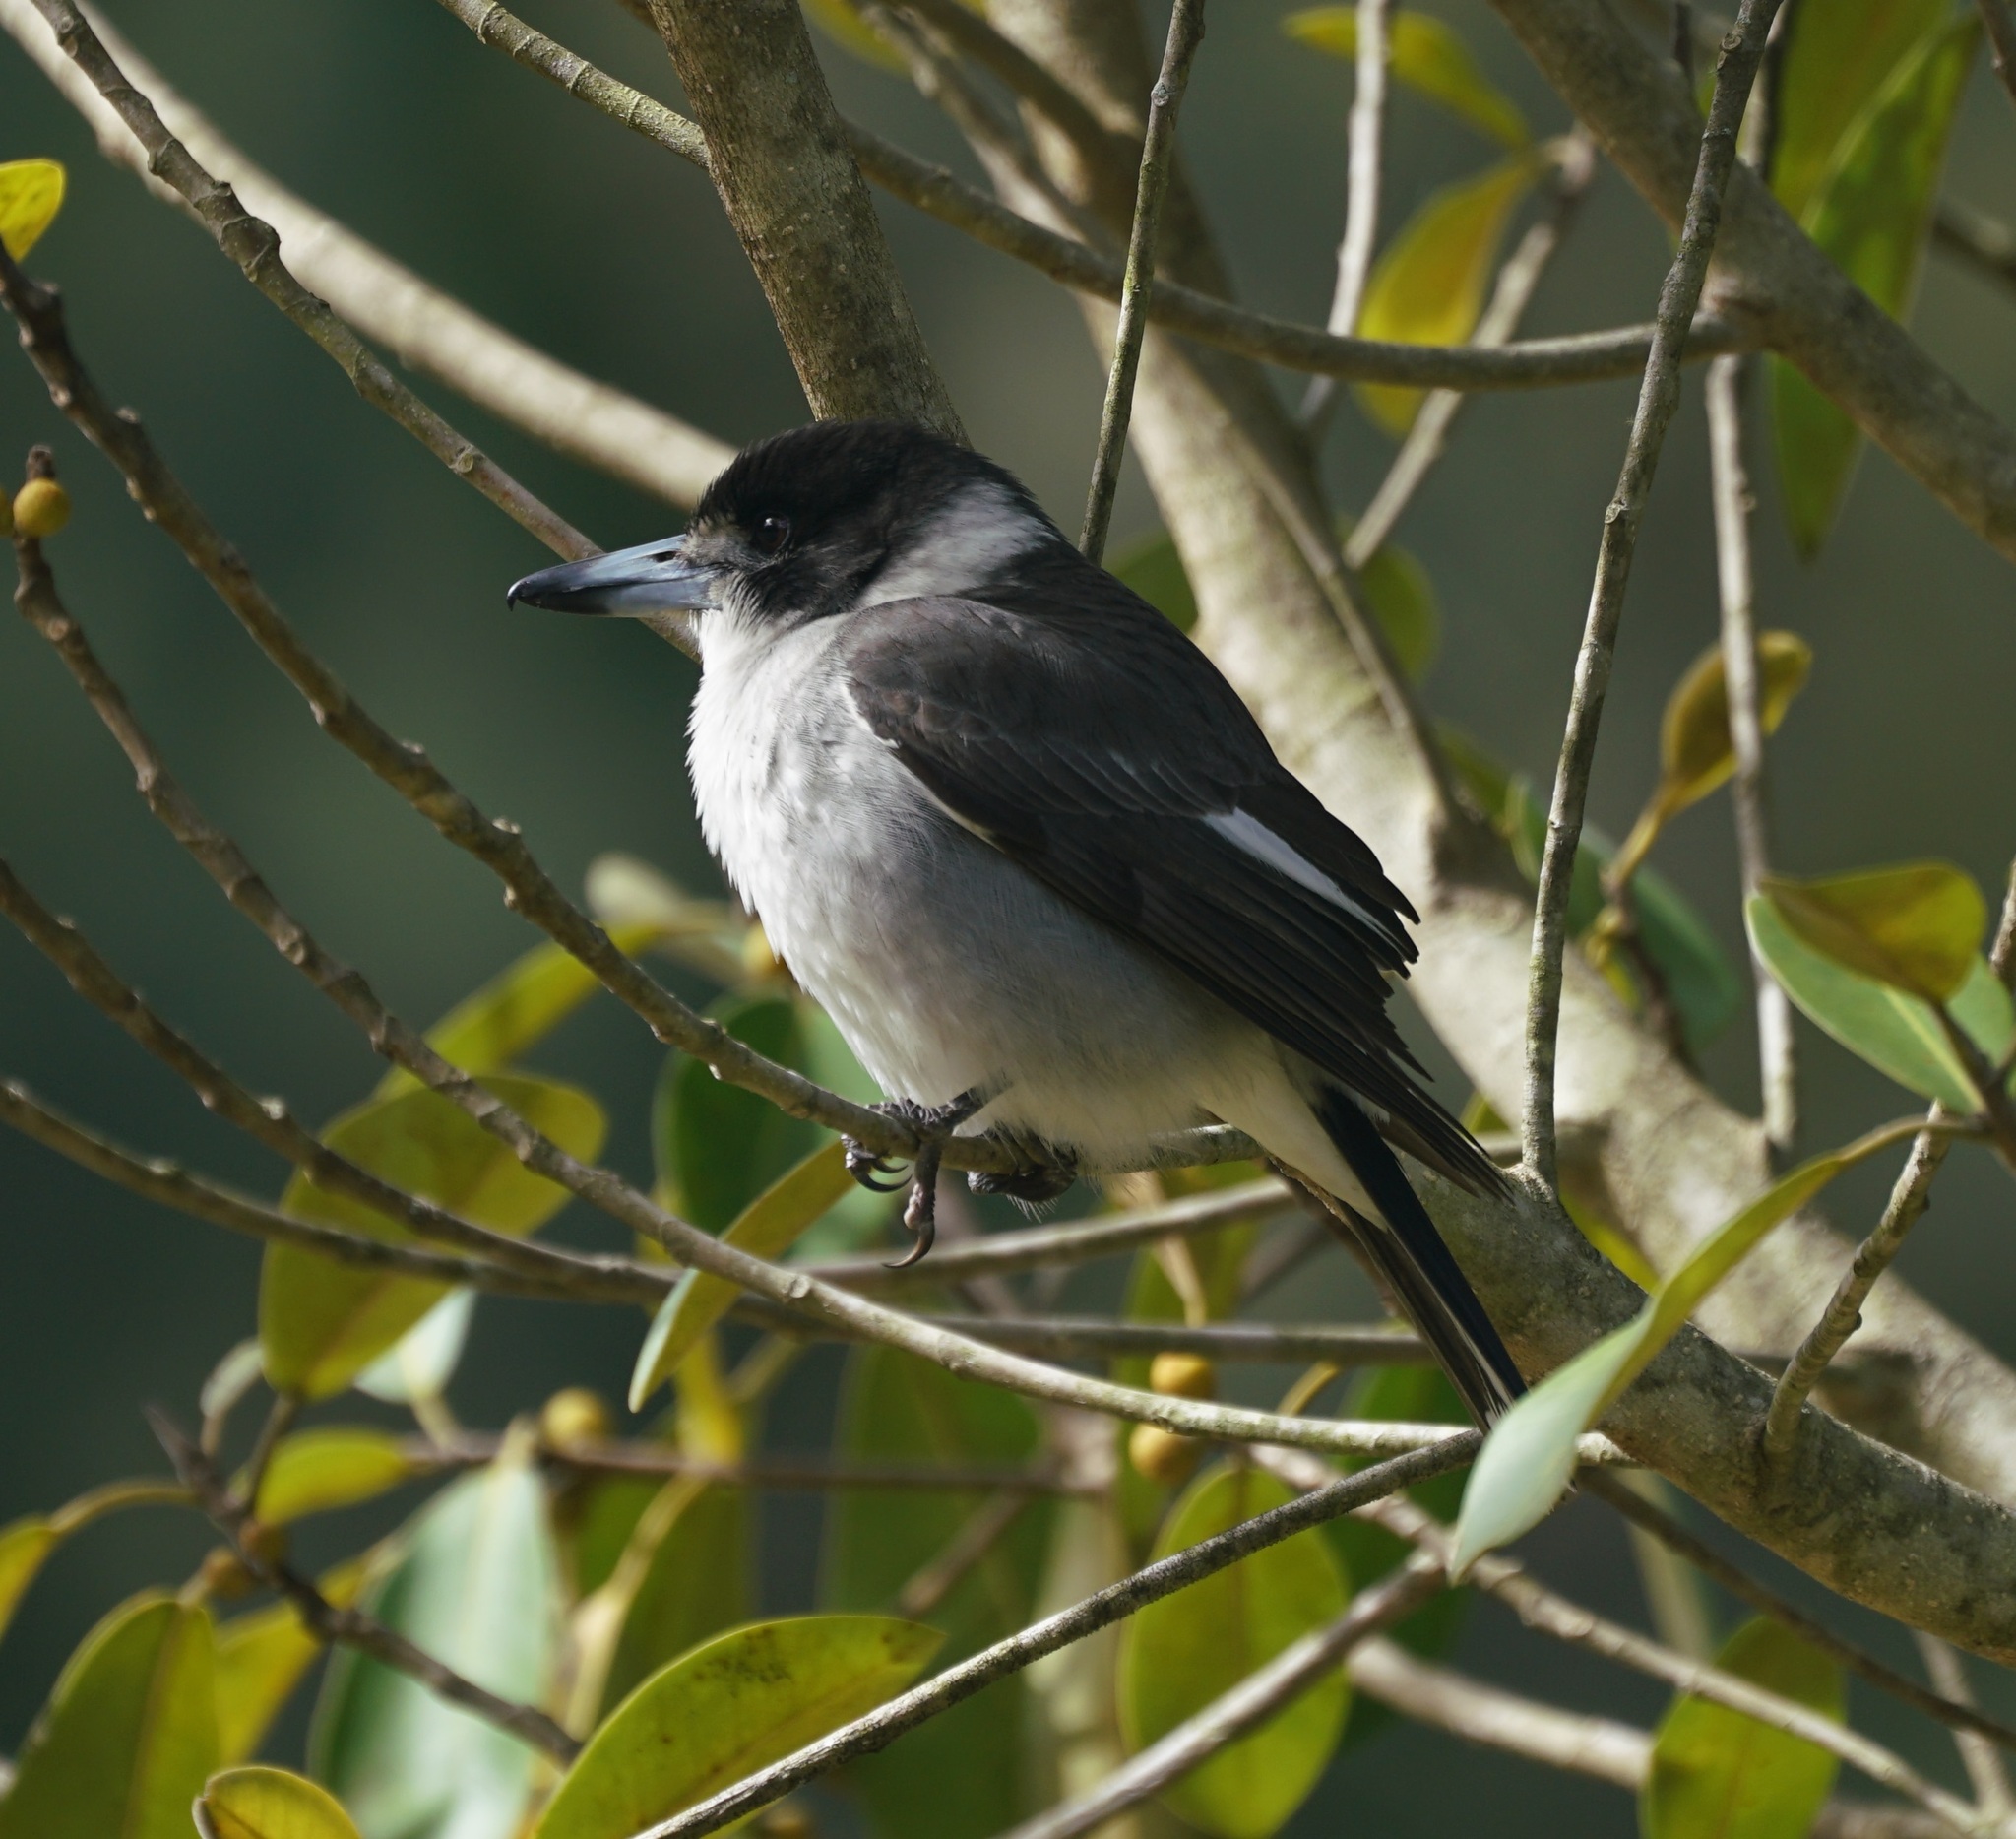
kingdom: Animalia
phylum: Chordata
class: Aves
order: Passeriformes
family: Cracticidae
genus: Cracticus
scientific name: Cracticus torquatus
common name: Grey butcherbird
